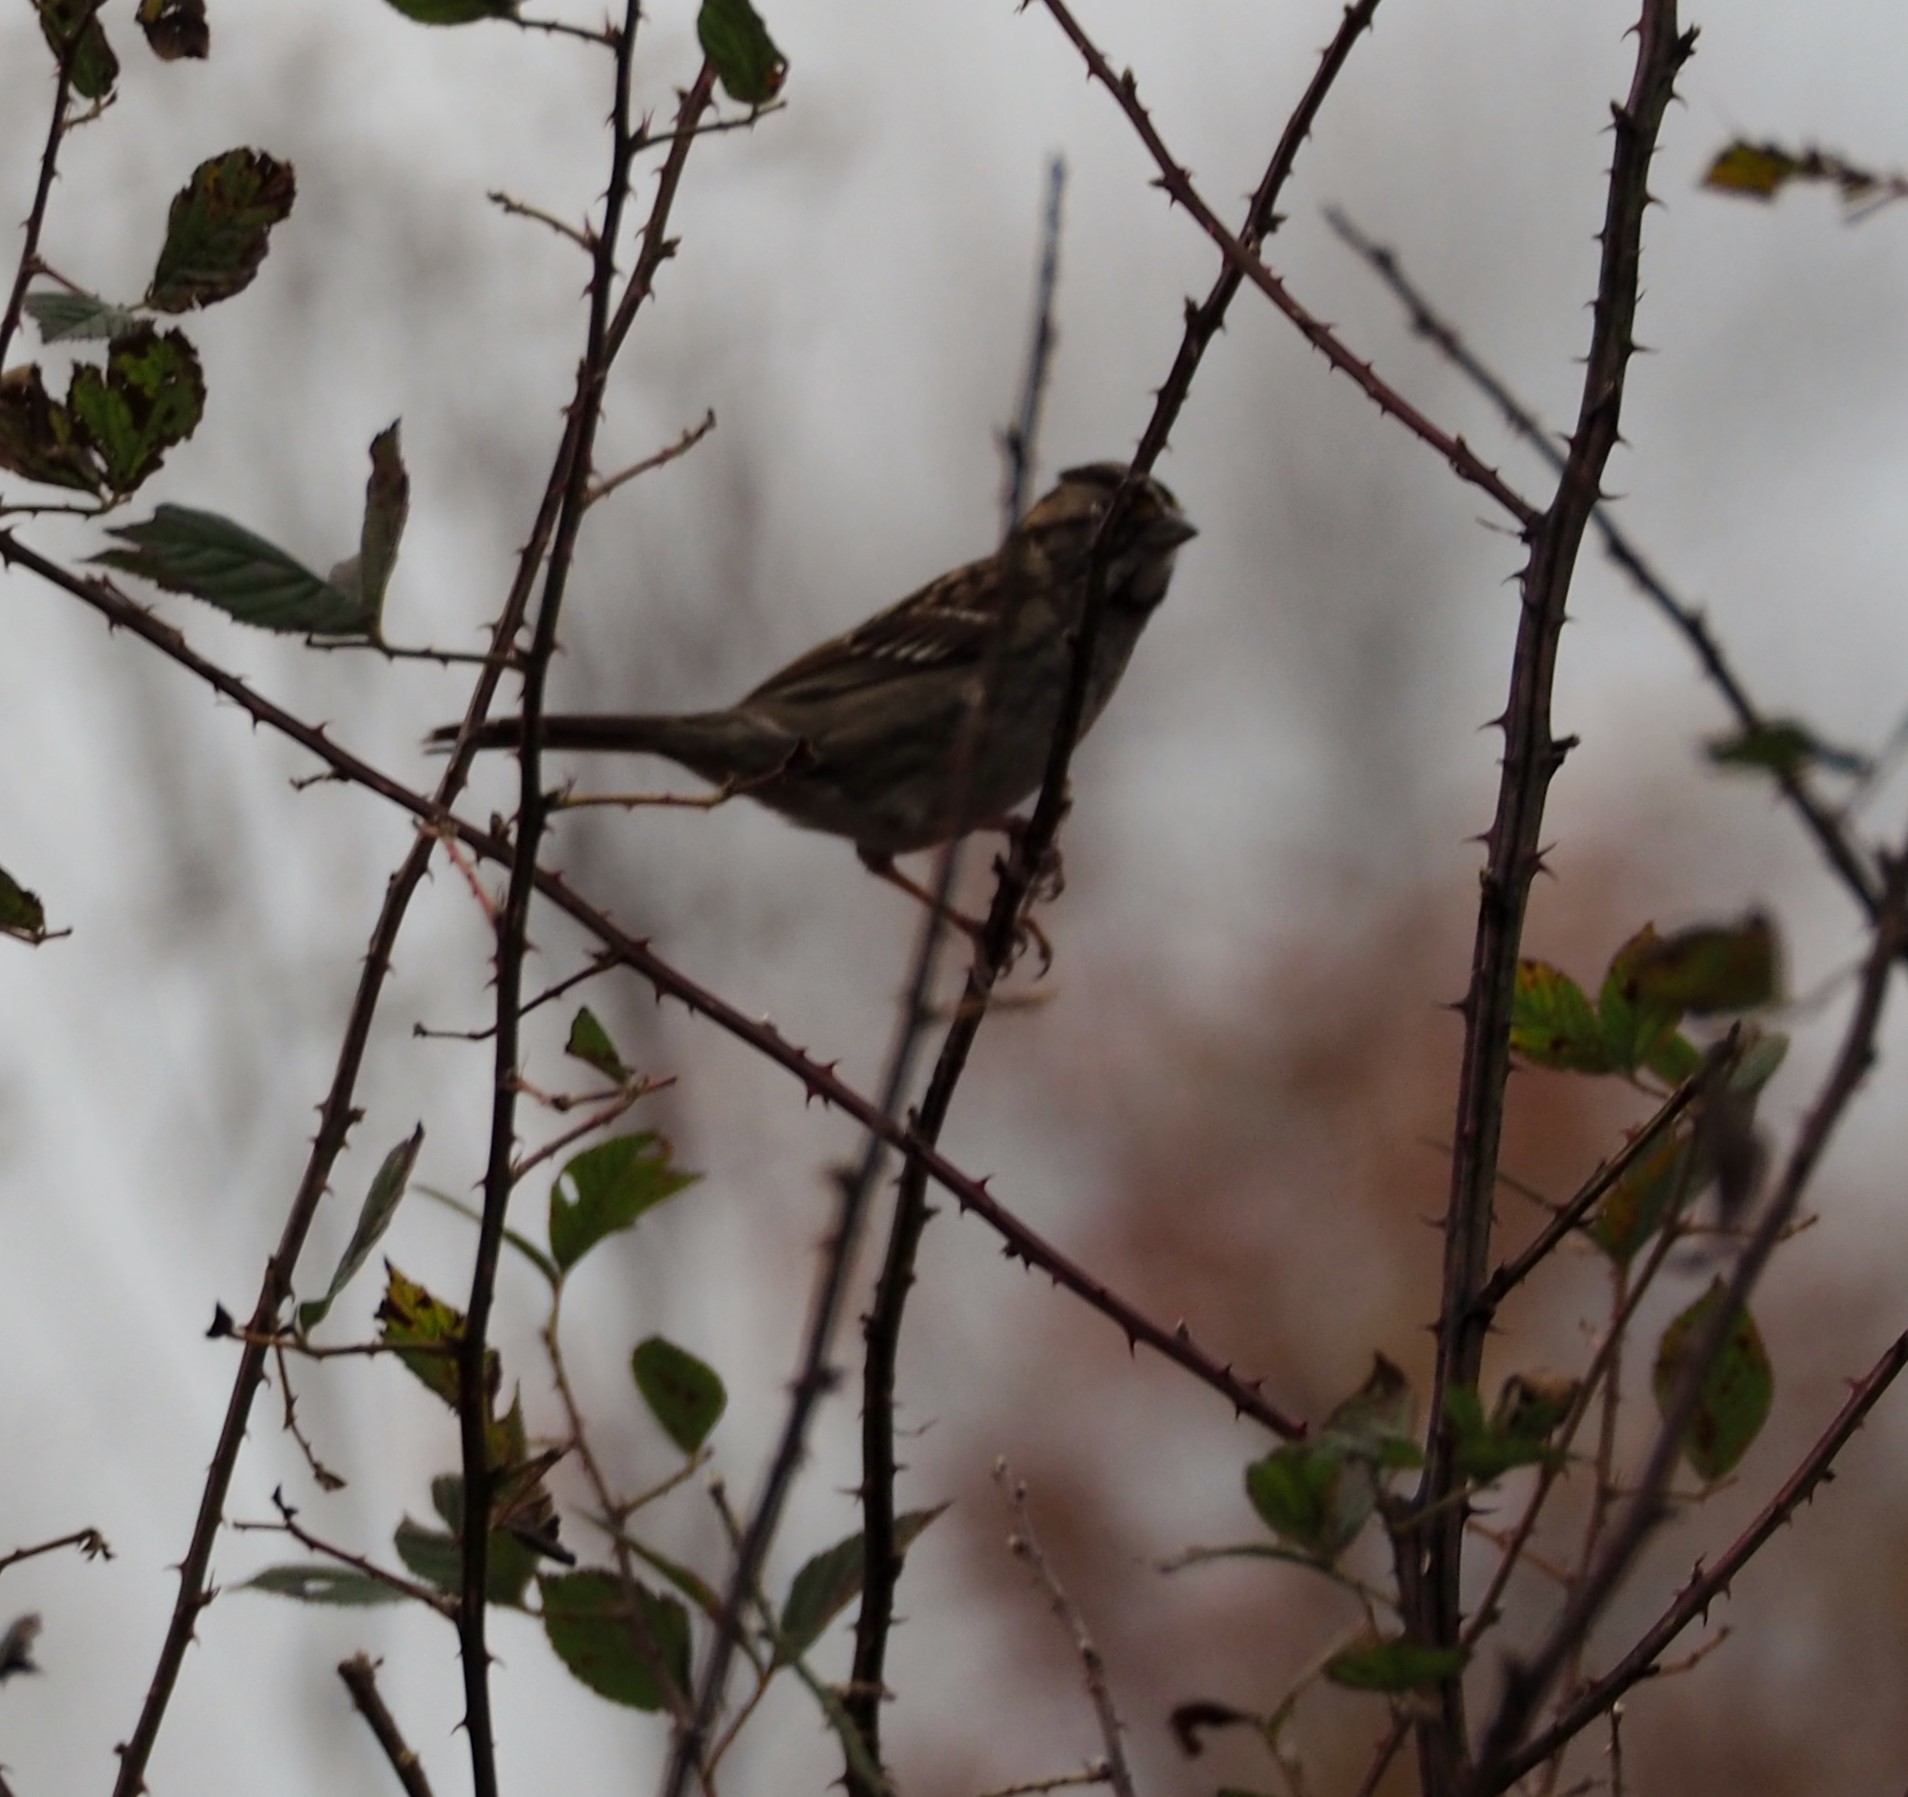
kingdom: Animalia
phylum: Chordata
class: Aves
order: Passeriformes
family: Passerellidae
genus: Zonotrichia
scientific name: Zonotrichia albicollis
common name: White-throated sparrow
